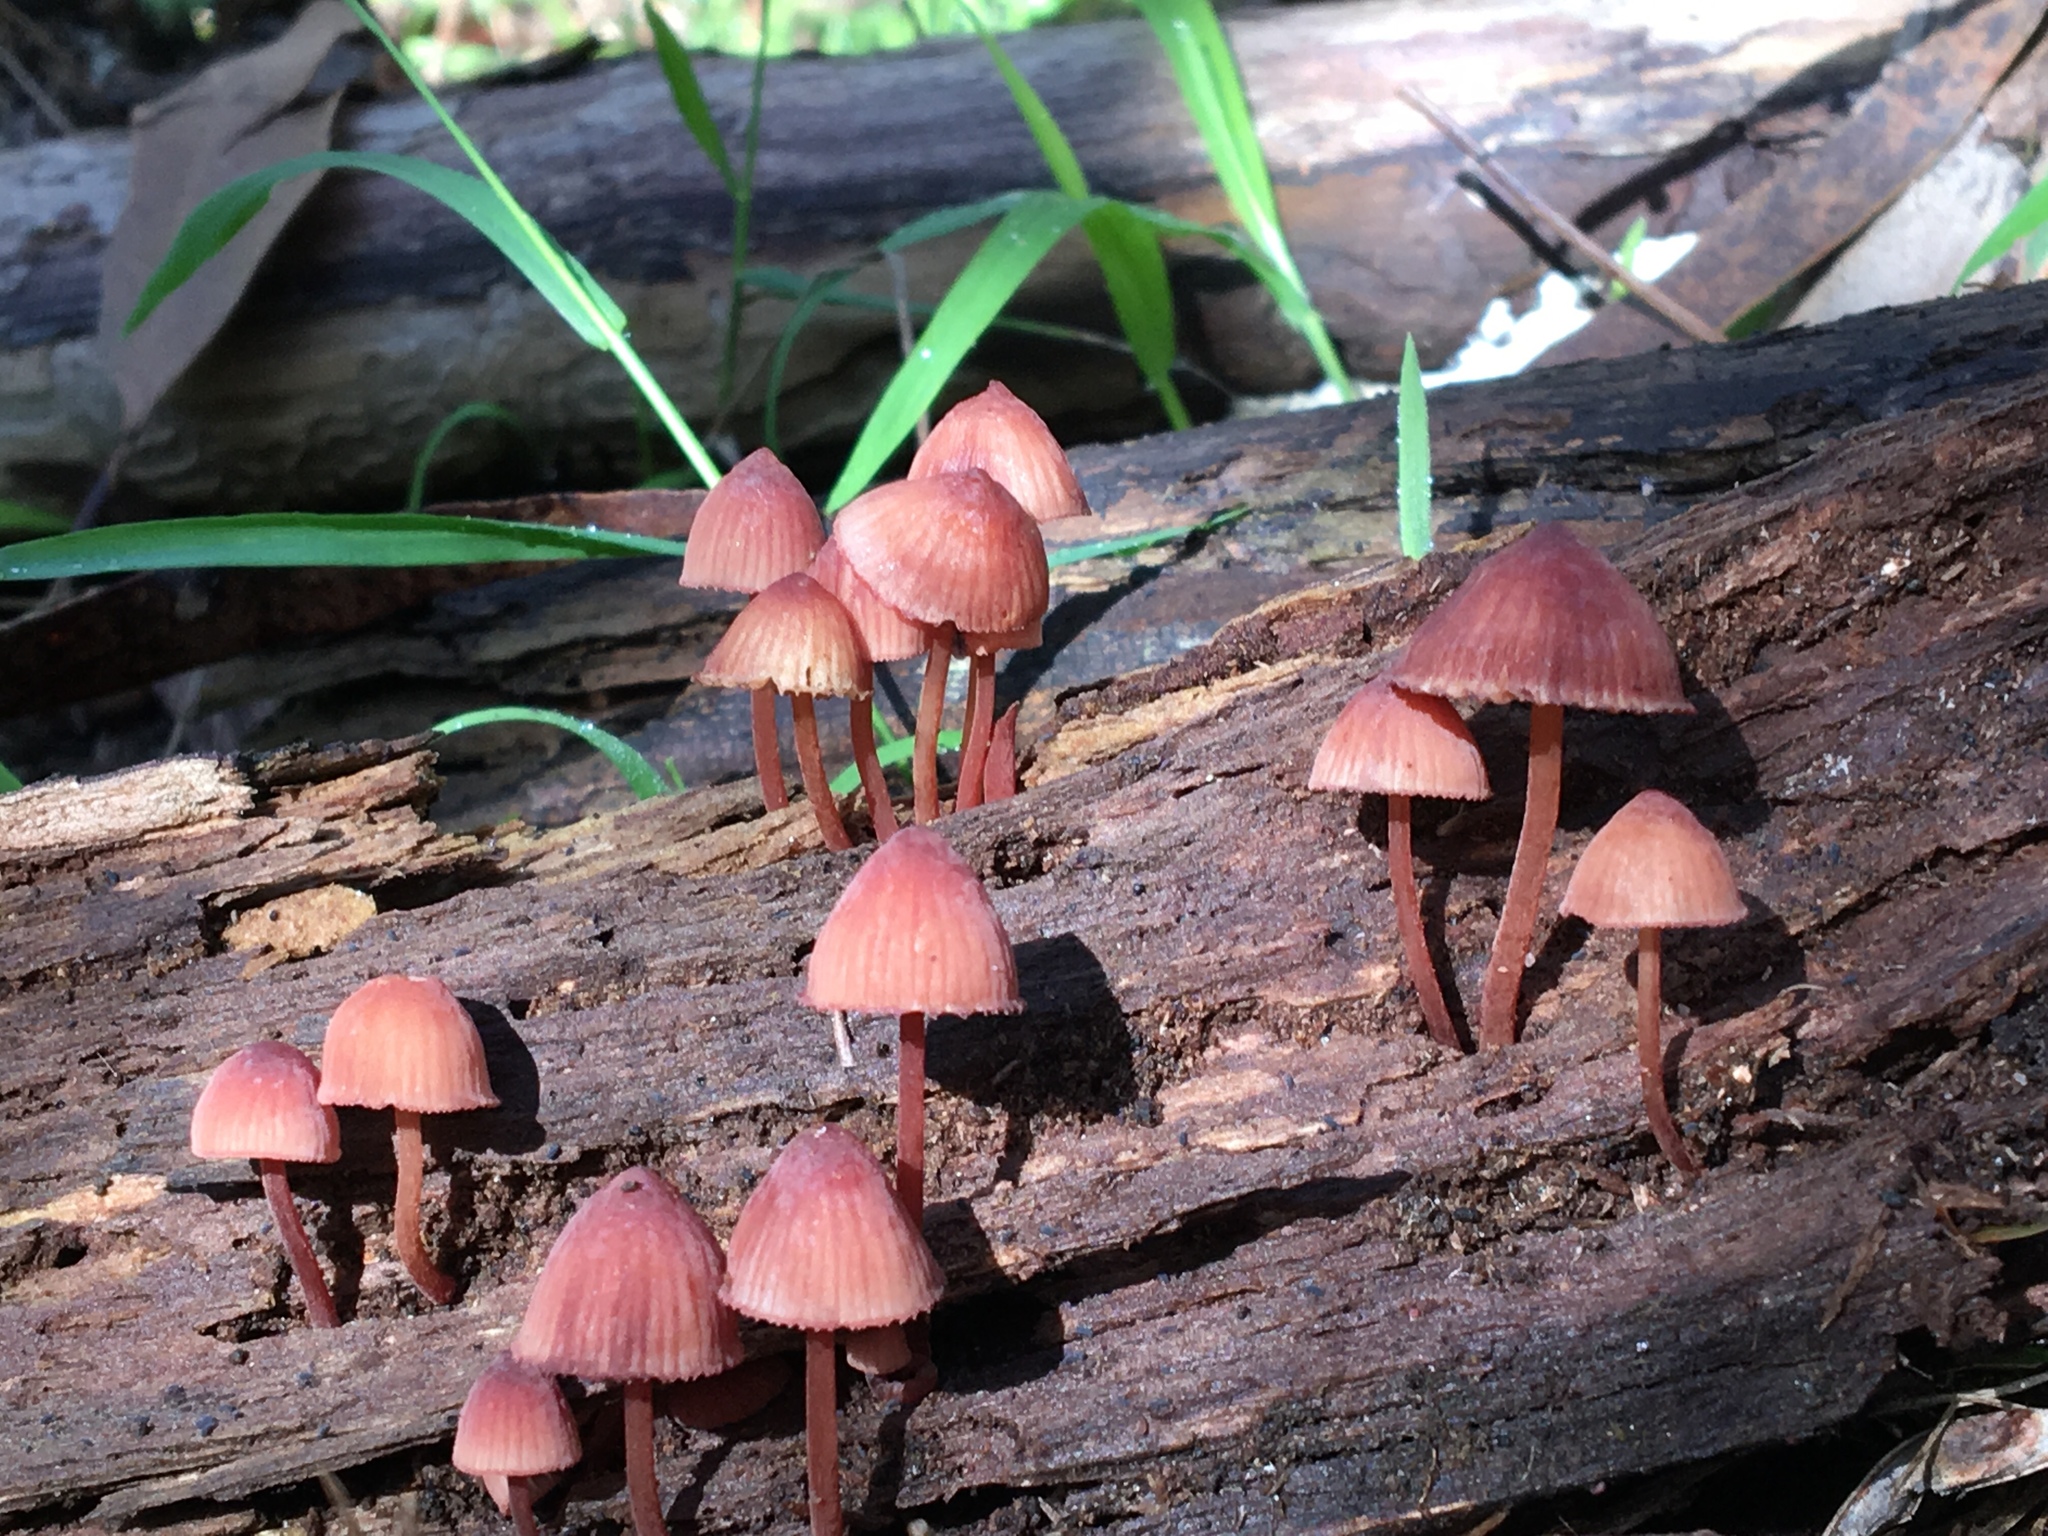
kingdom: Fungi
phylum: Basidiomycota
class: Agaricomycetes
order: Agaricales
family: Mycenaceae
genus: Mycena
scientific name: Mycena kuurkacea
